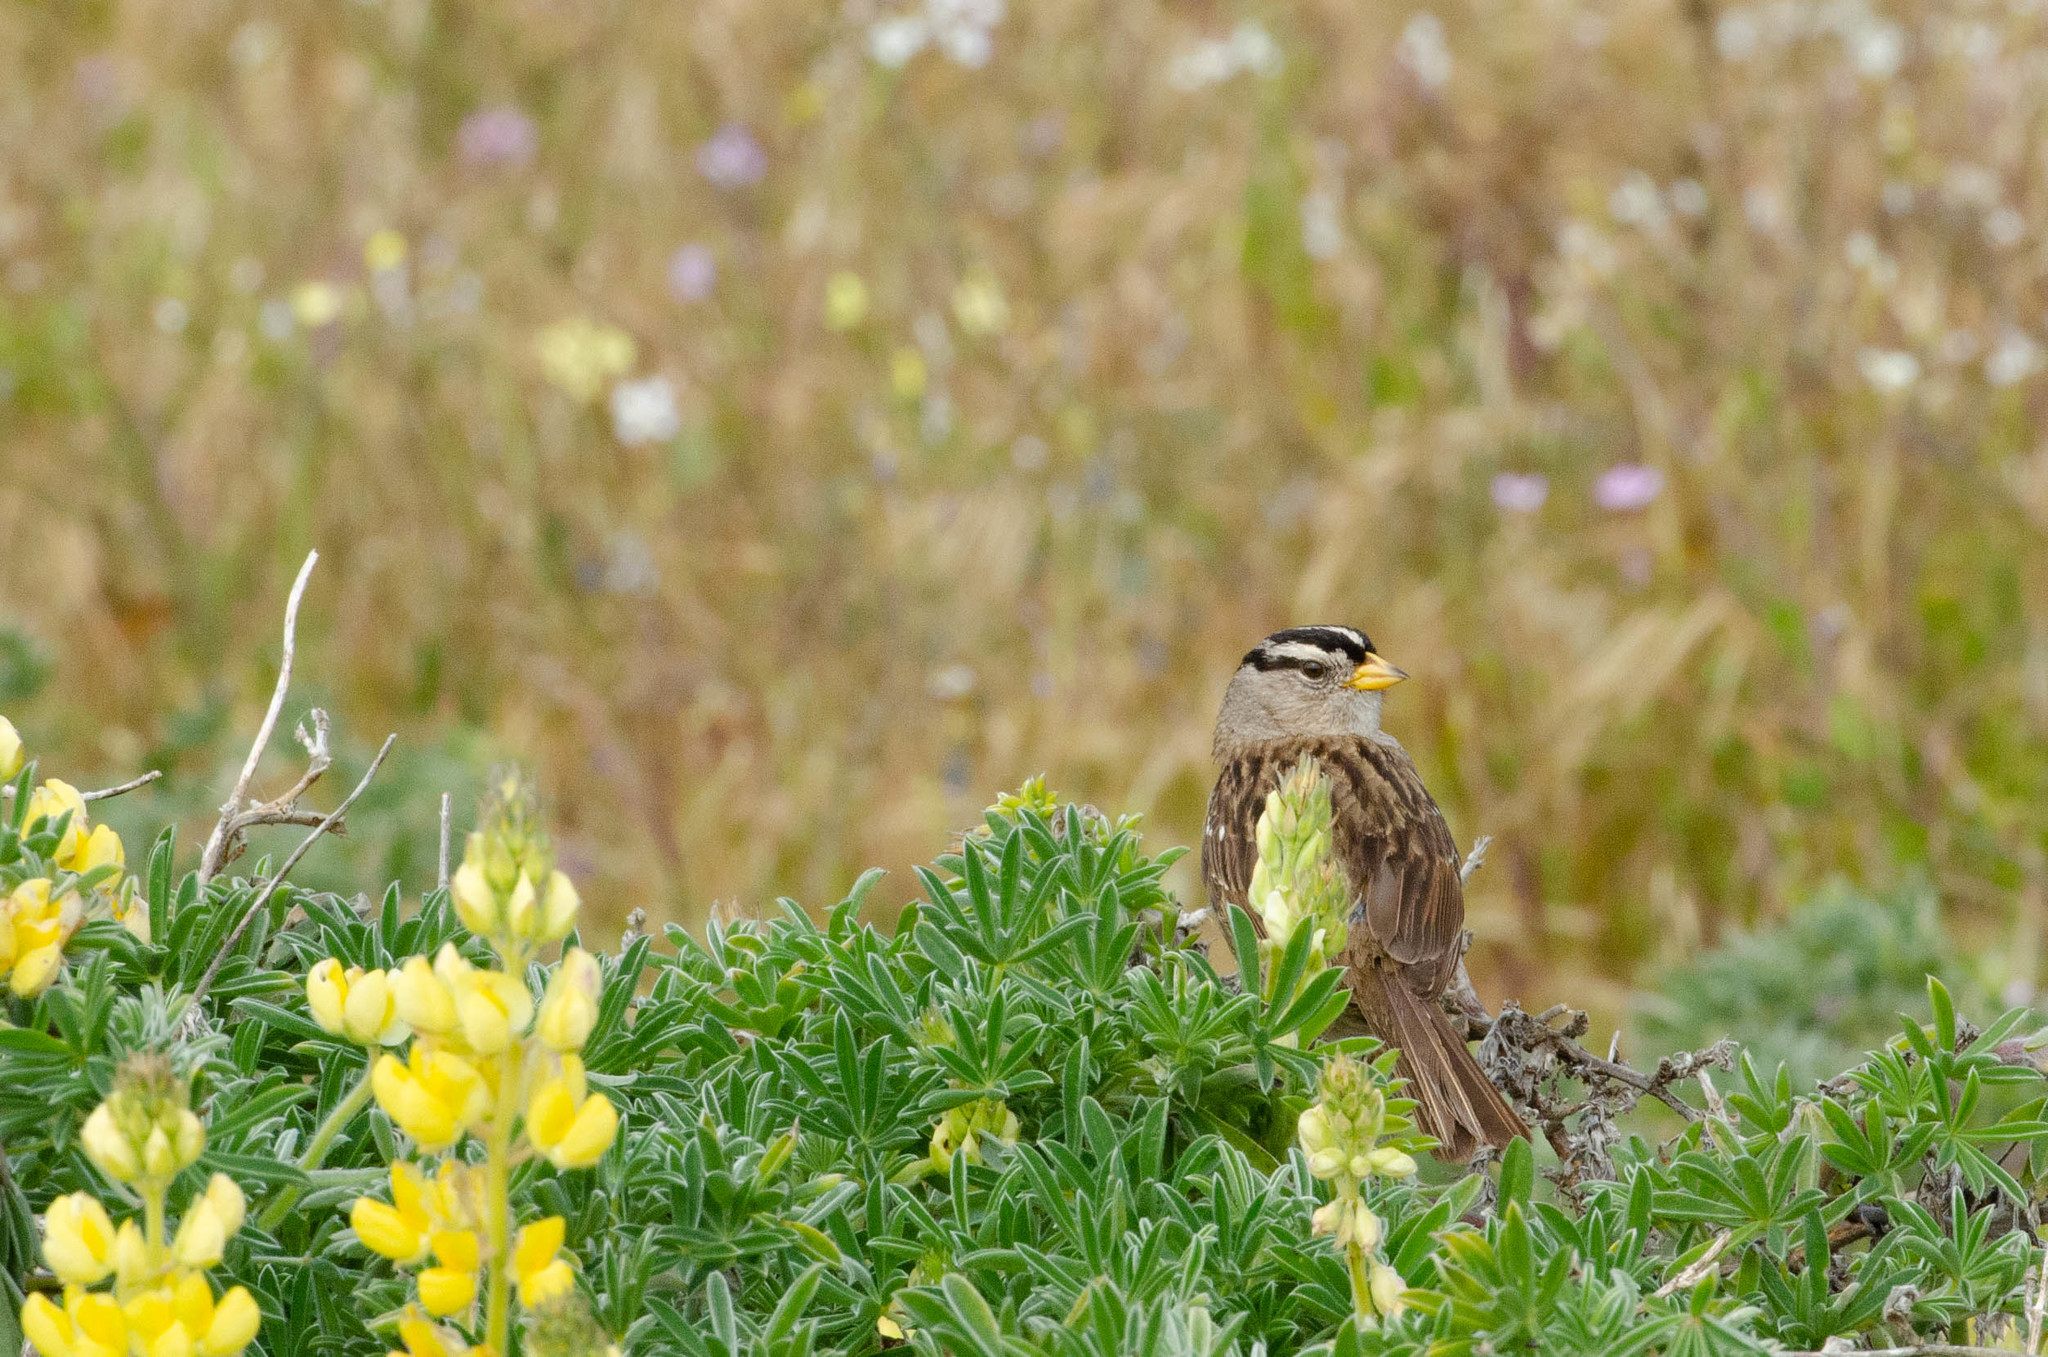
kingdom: Animalia
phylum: Chordata
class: Aves
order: Passeriformes
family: Passerellidae
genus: Zonotrichia
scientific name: Zonotrichia leucophrys
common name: White-crowned sparrow
